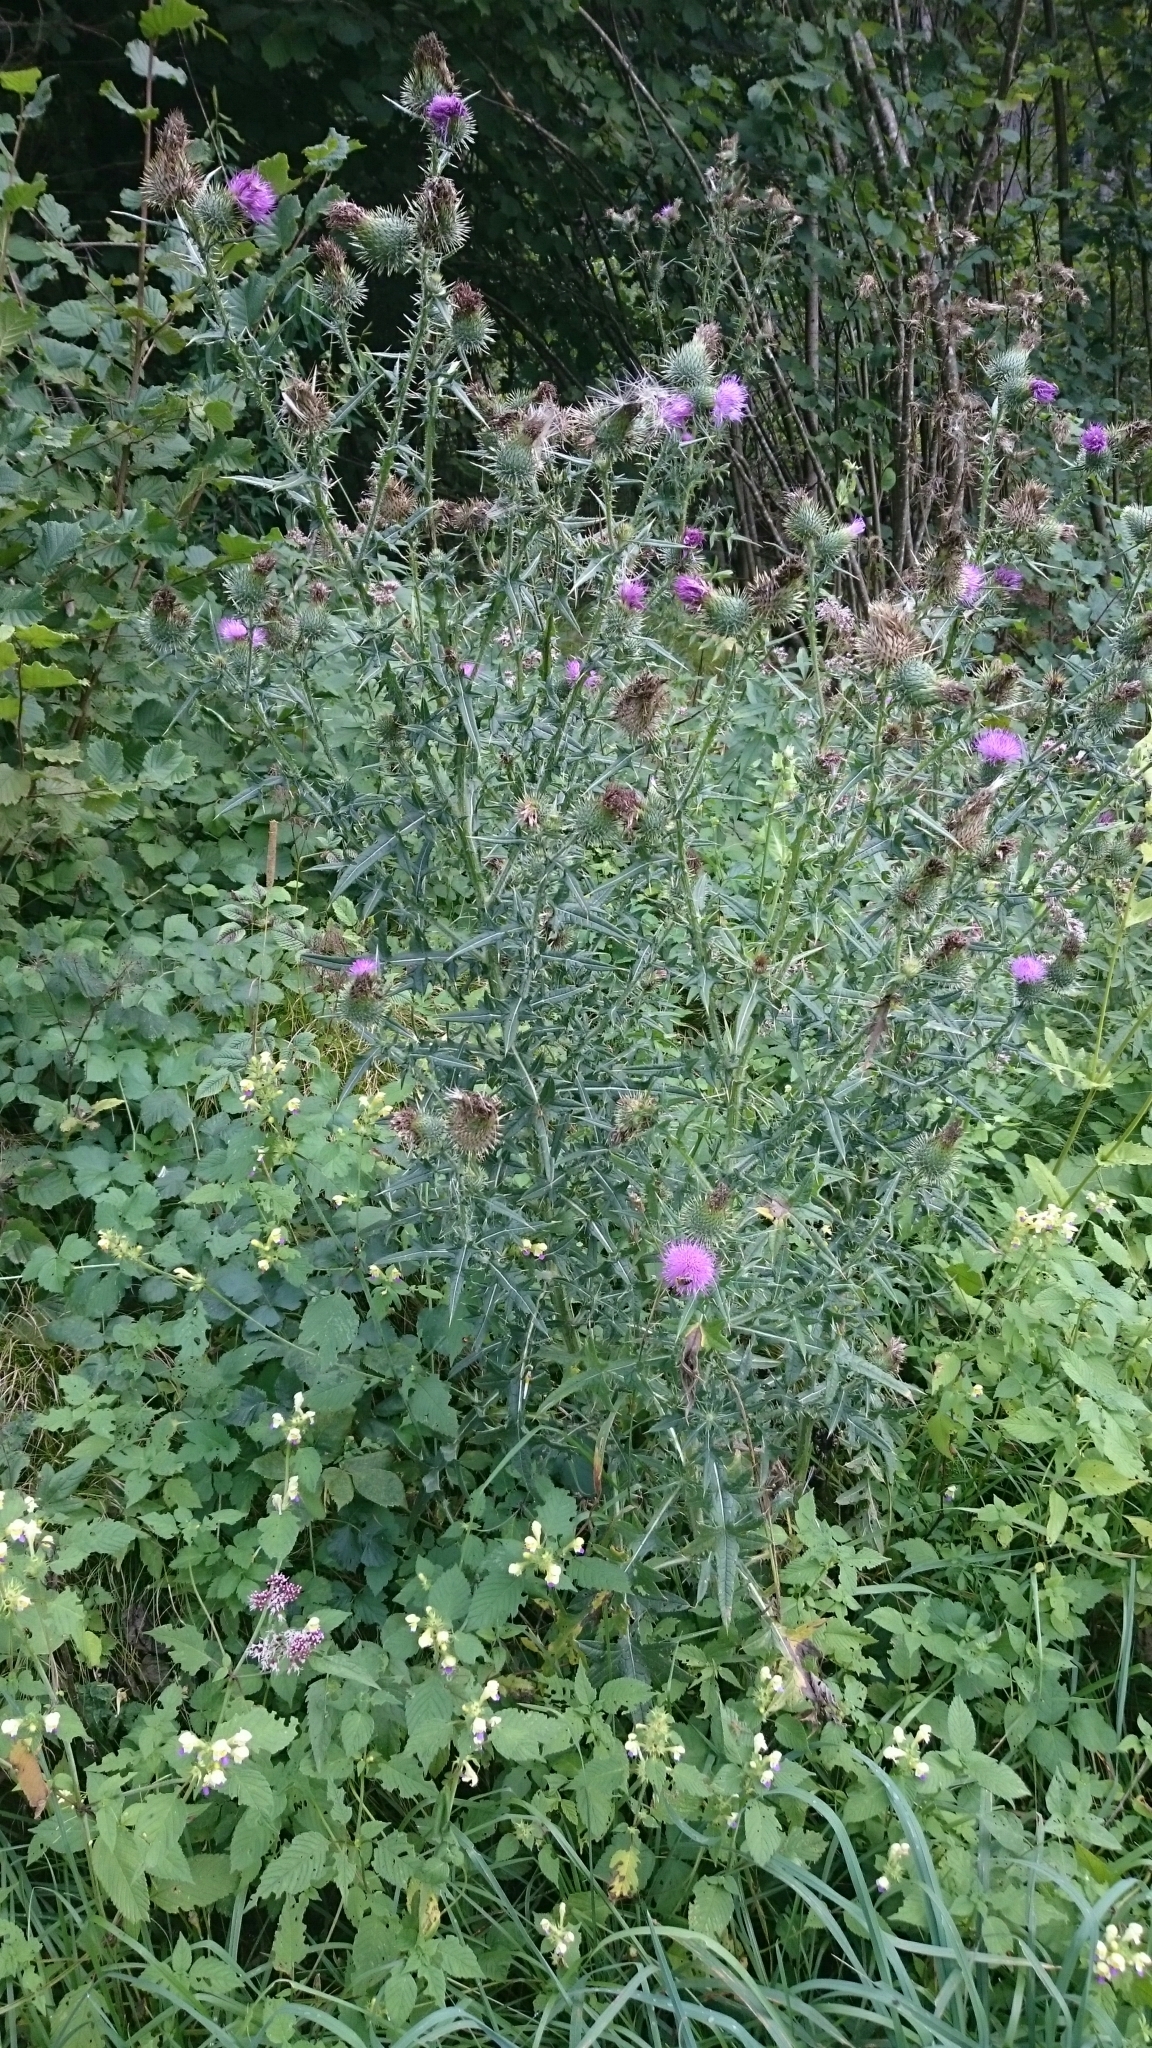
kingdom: Plantae
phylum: Tracheophyta
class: Magnoliopsida
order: Asterales
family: Asteraceae
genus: Cirsium
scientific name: Cirsium vulgare
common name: Bull thistle
